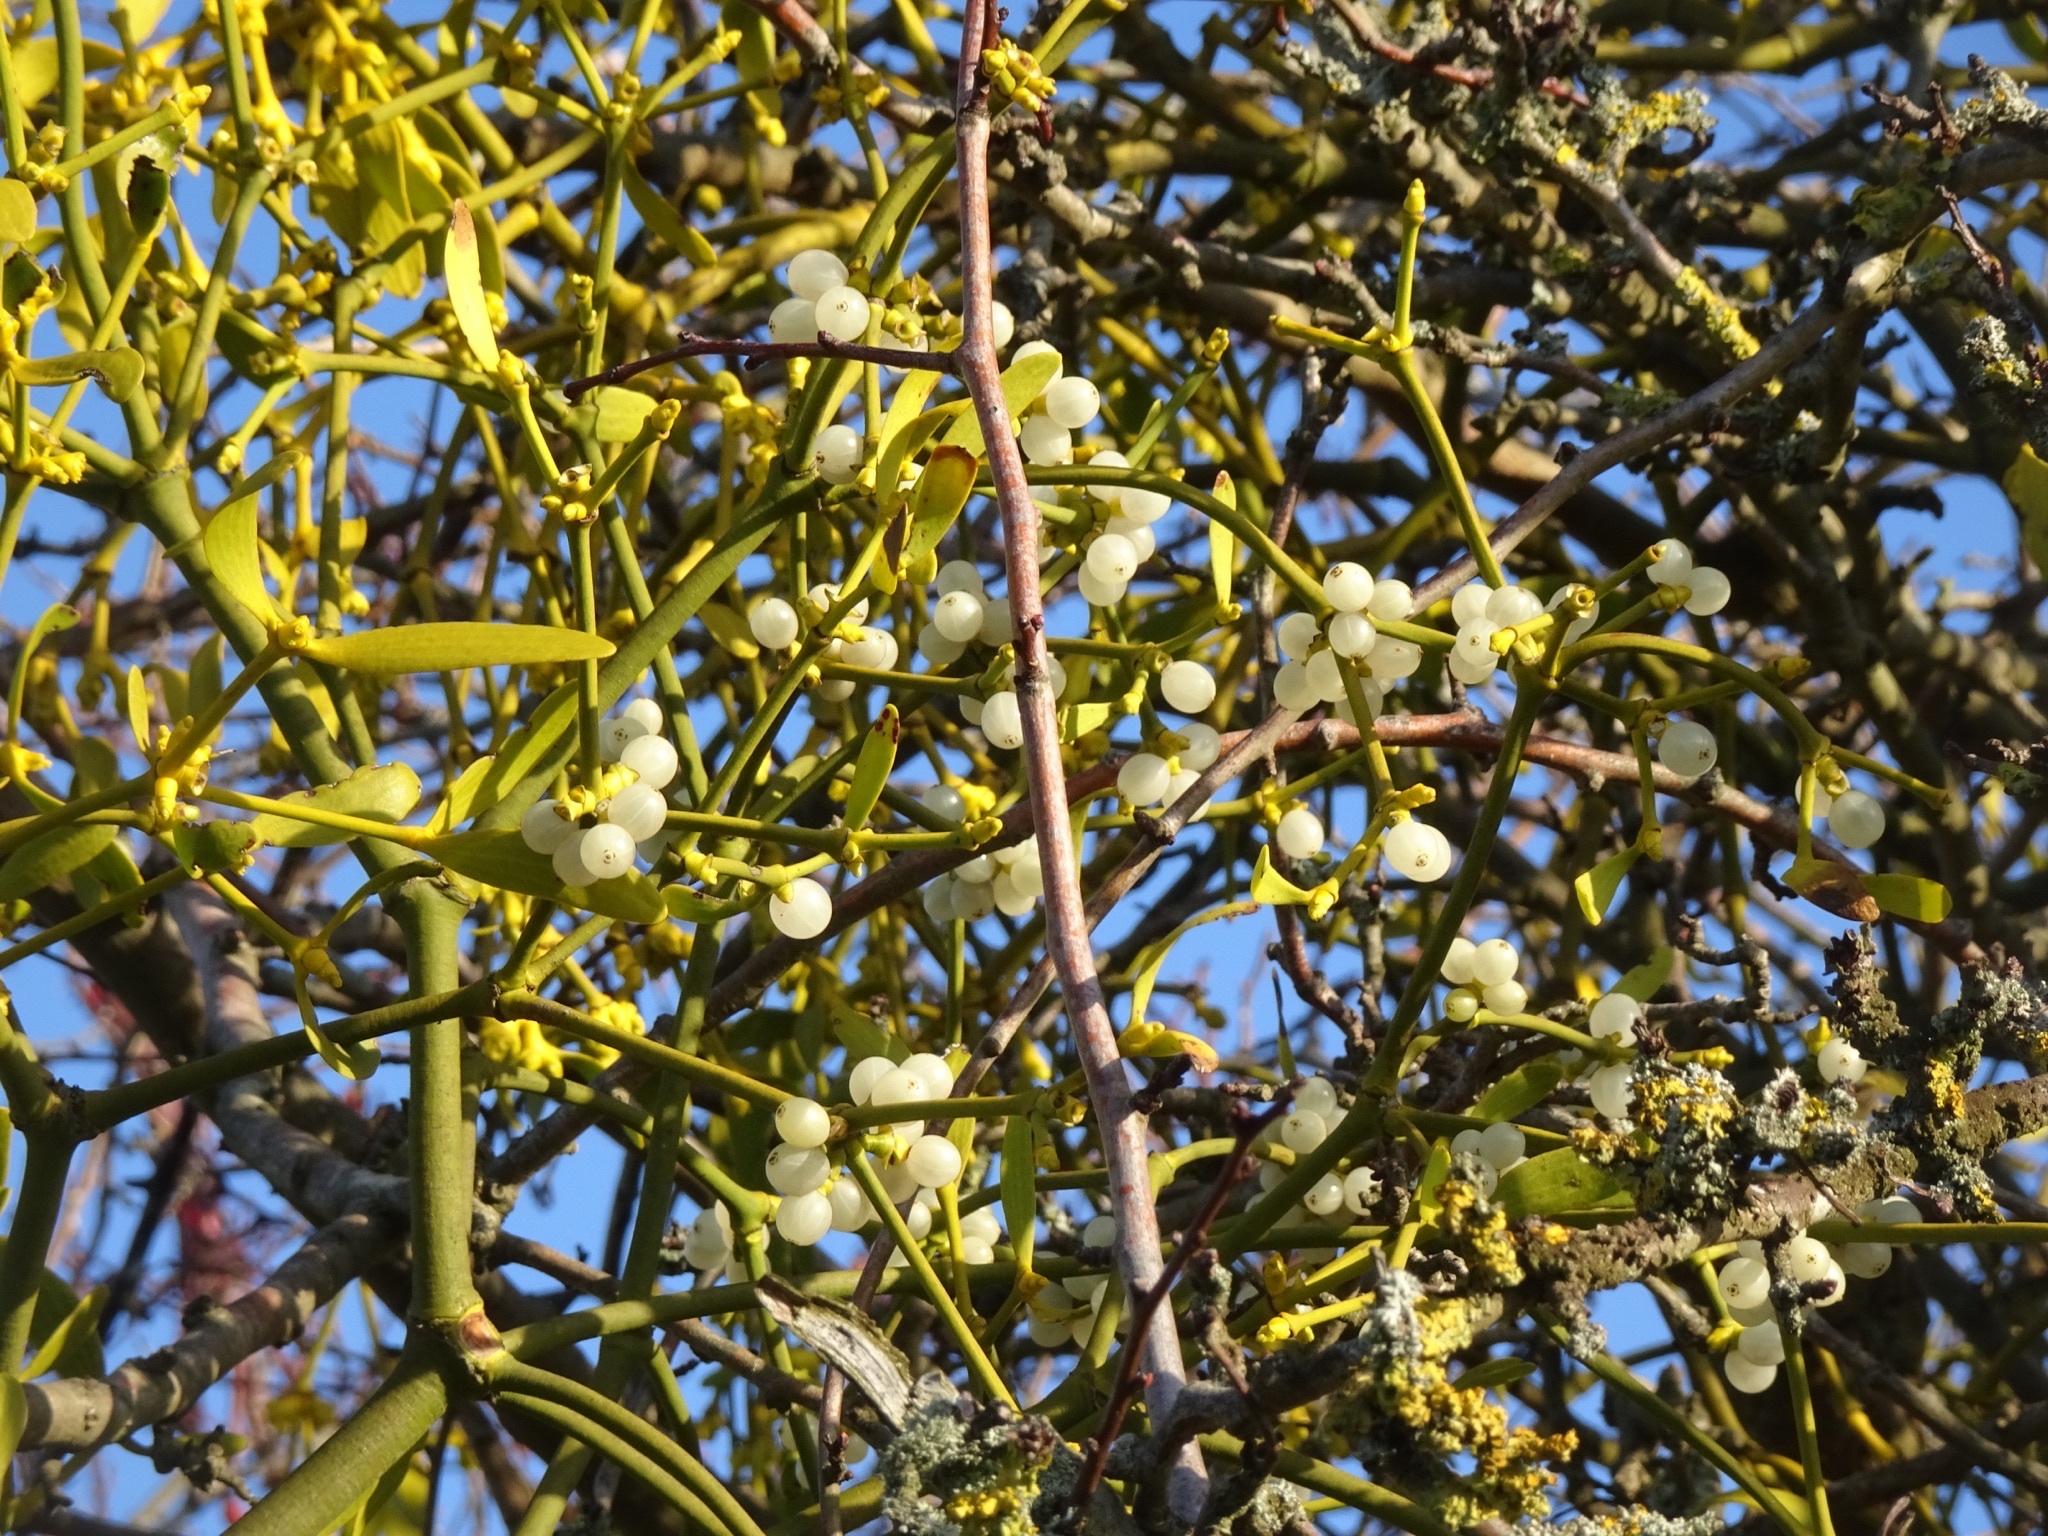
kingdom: Plantae
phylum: Tracheophyta
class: Magnoliopsida
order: Santalales
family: Viscaceae
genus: Viscum
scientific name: Viscum album
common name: Mistletoe
